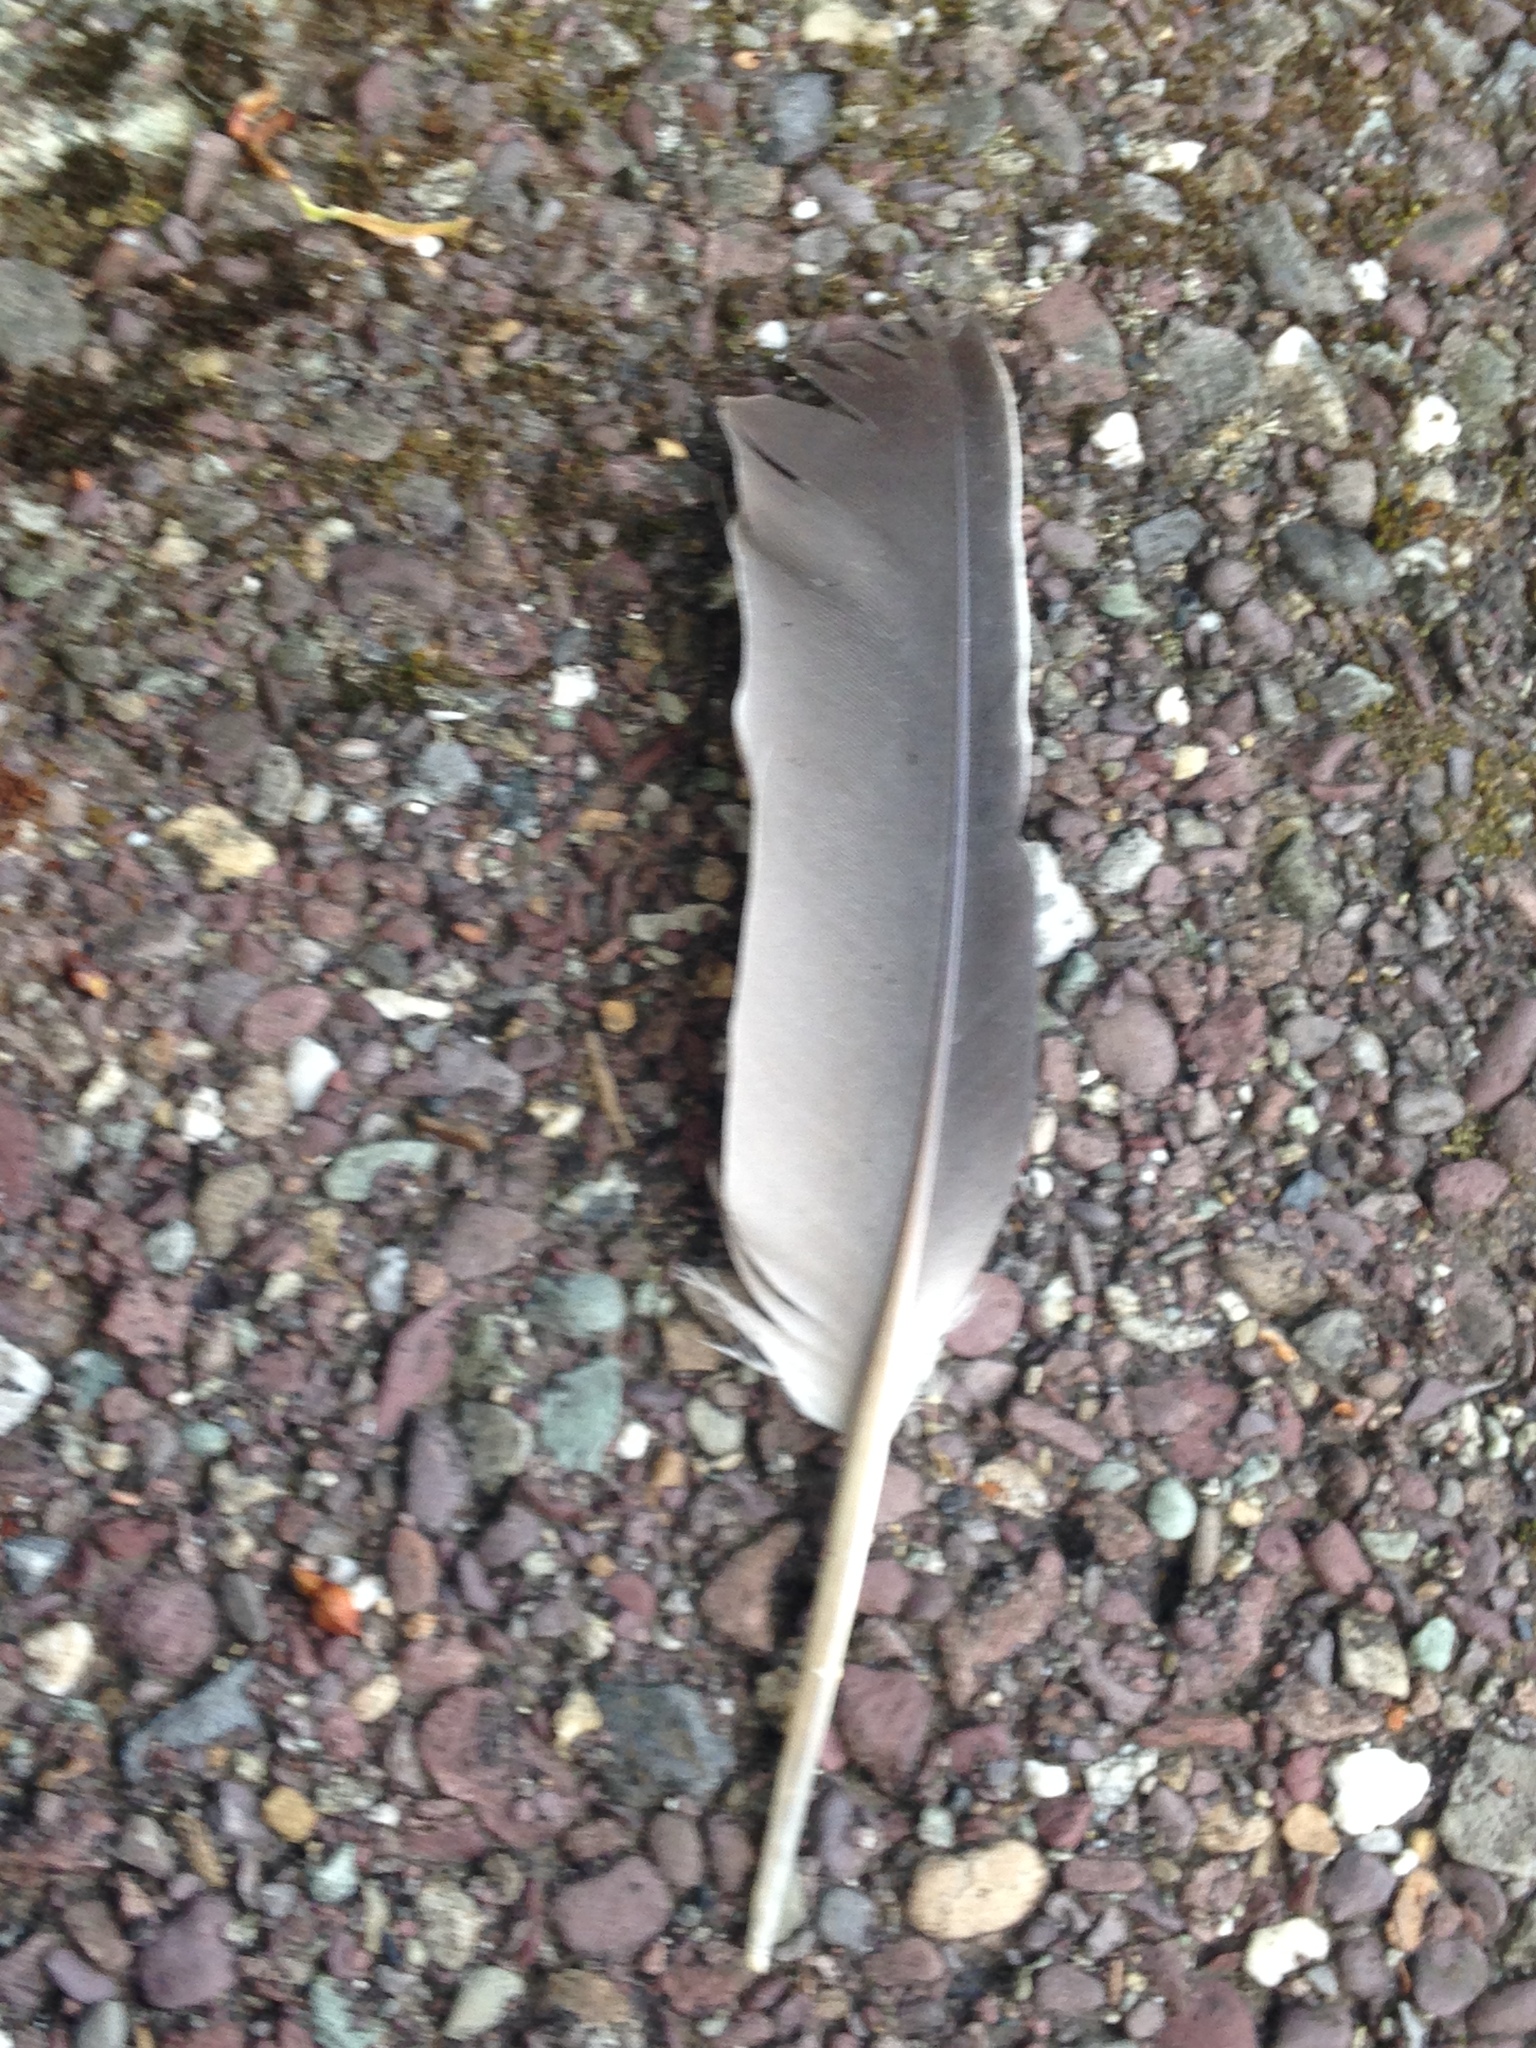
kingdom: Animalia
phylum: Chordata
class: Aves
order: Columbiformes
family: Columbidae
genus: Columba
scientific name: Columba palumbus
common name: Common wood pigeon
